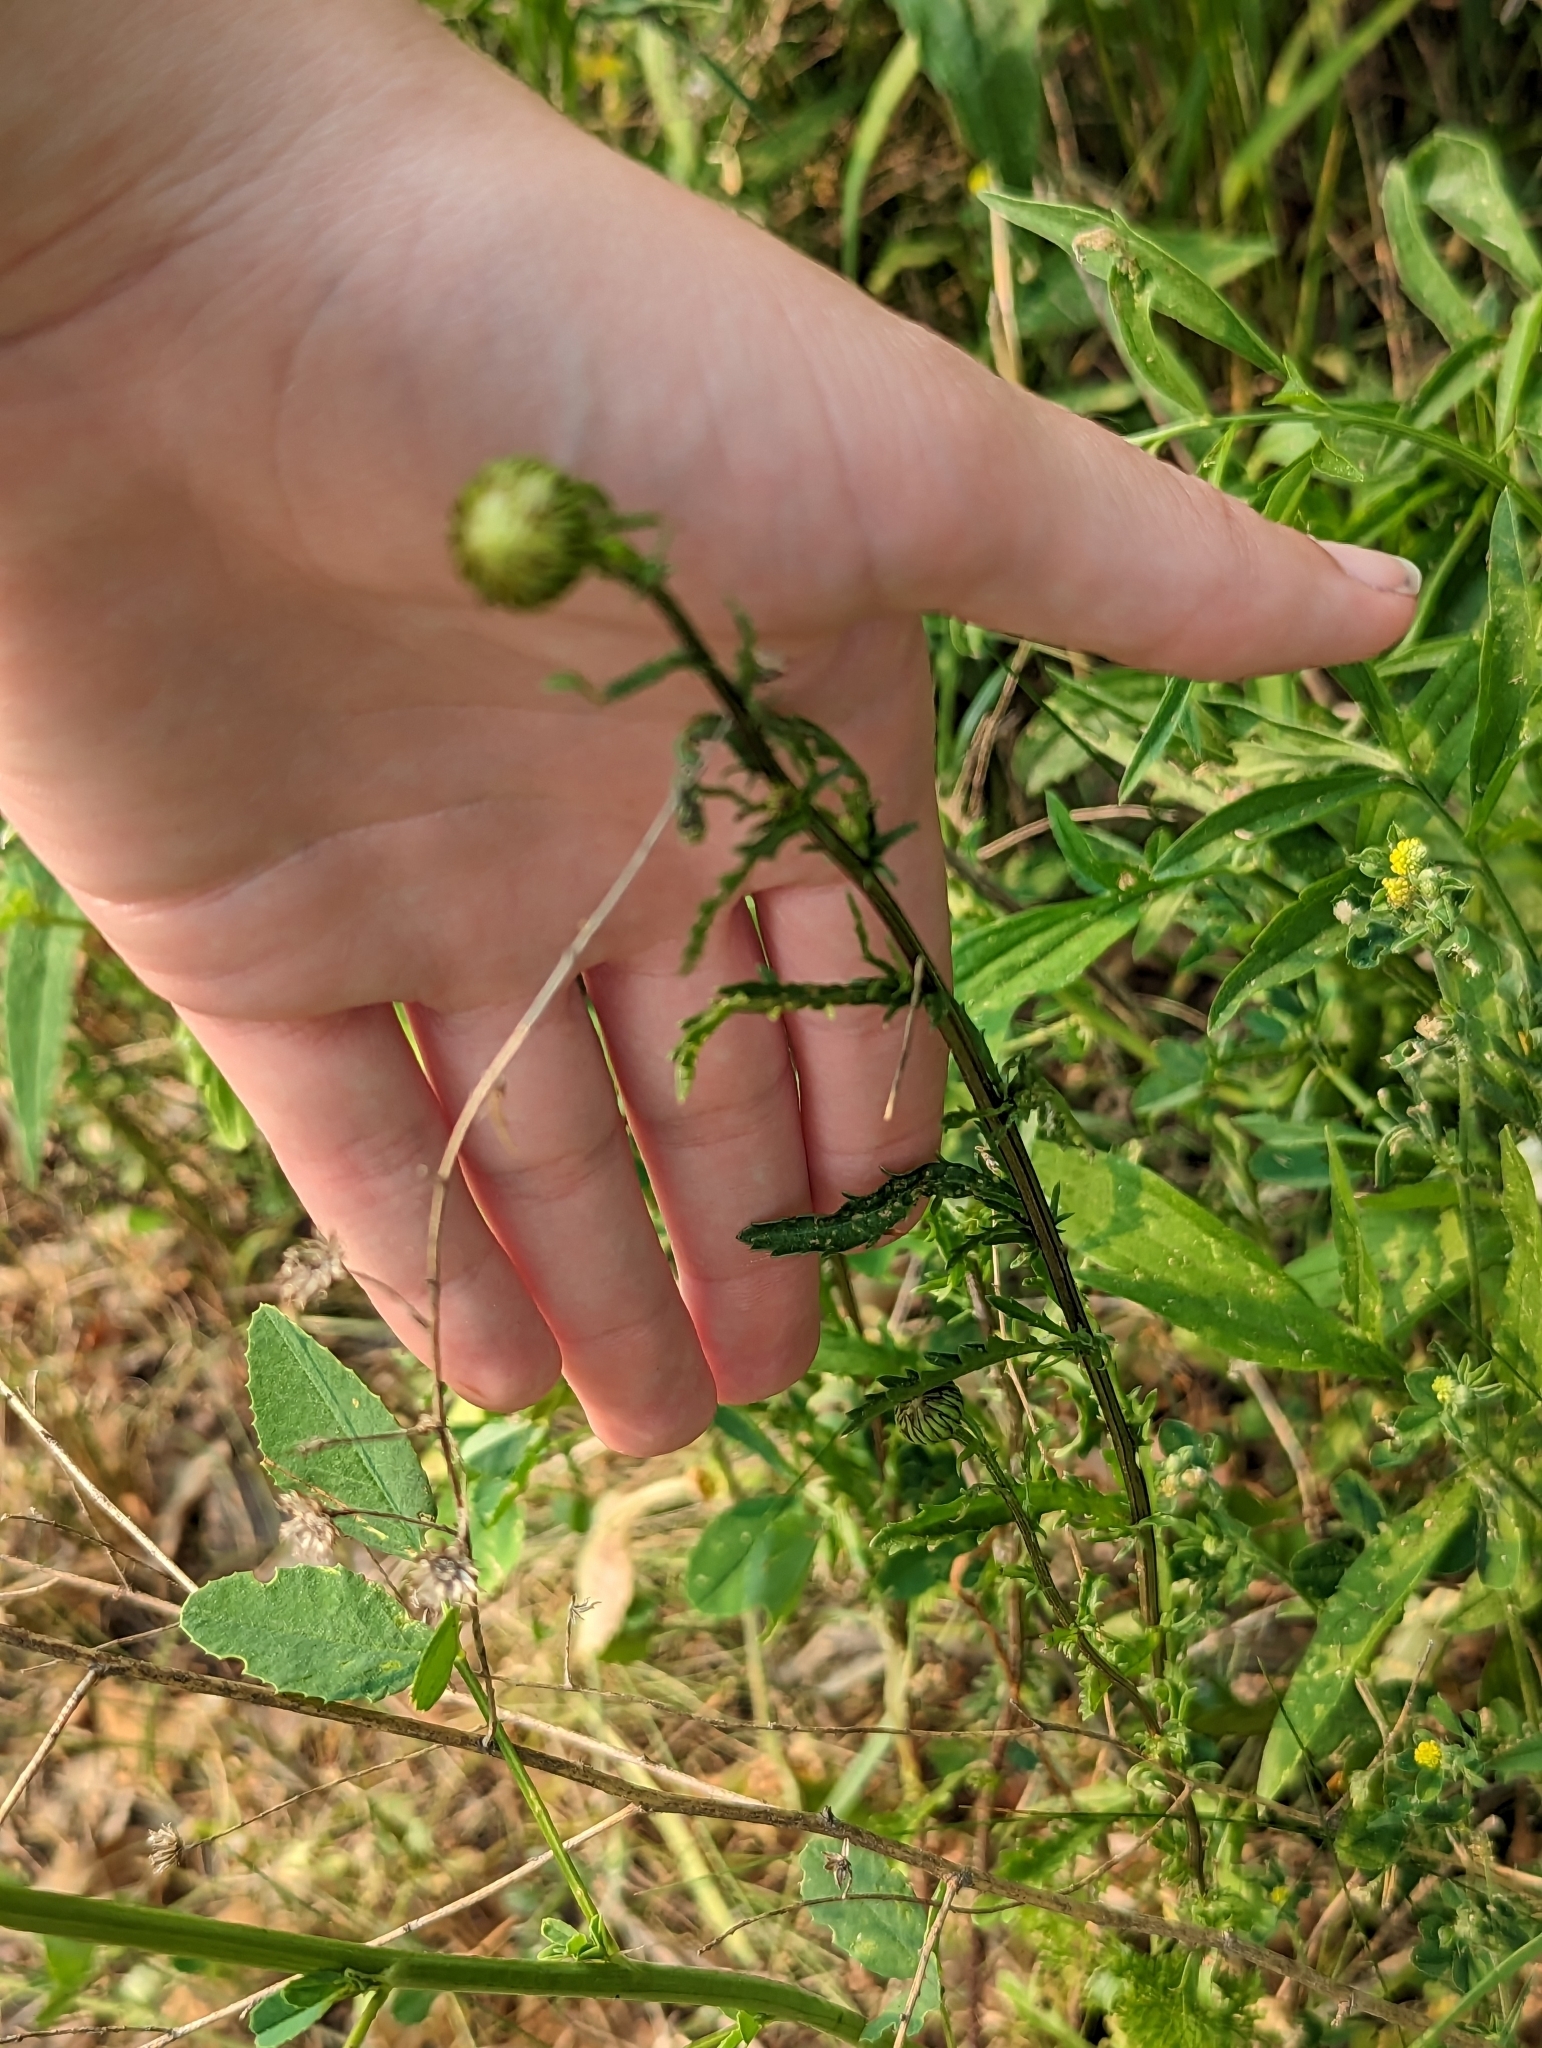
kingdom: Plantae
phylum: Tracheophyta
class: Magnoliopsida
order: Asterales
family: Asteraceae
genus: Leucanthemum
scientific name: Leucanthemum vulgare
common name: Oxeye daisy
